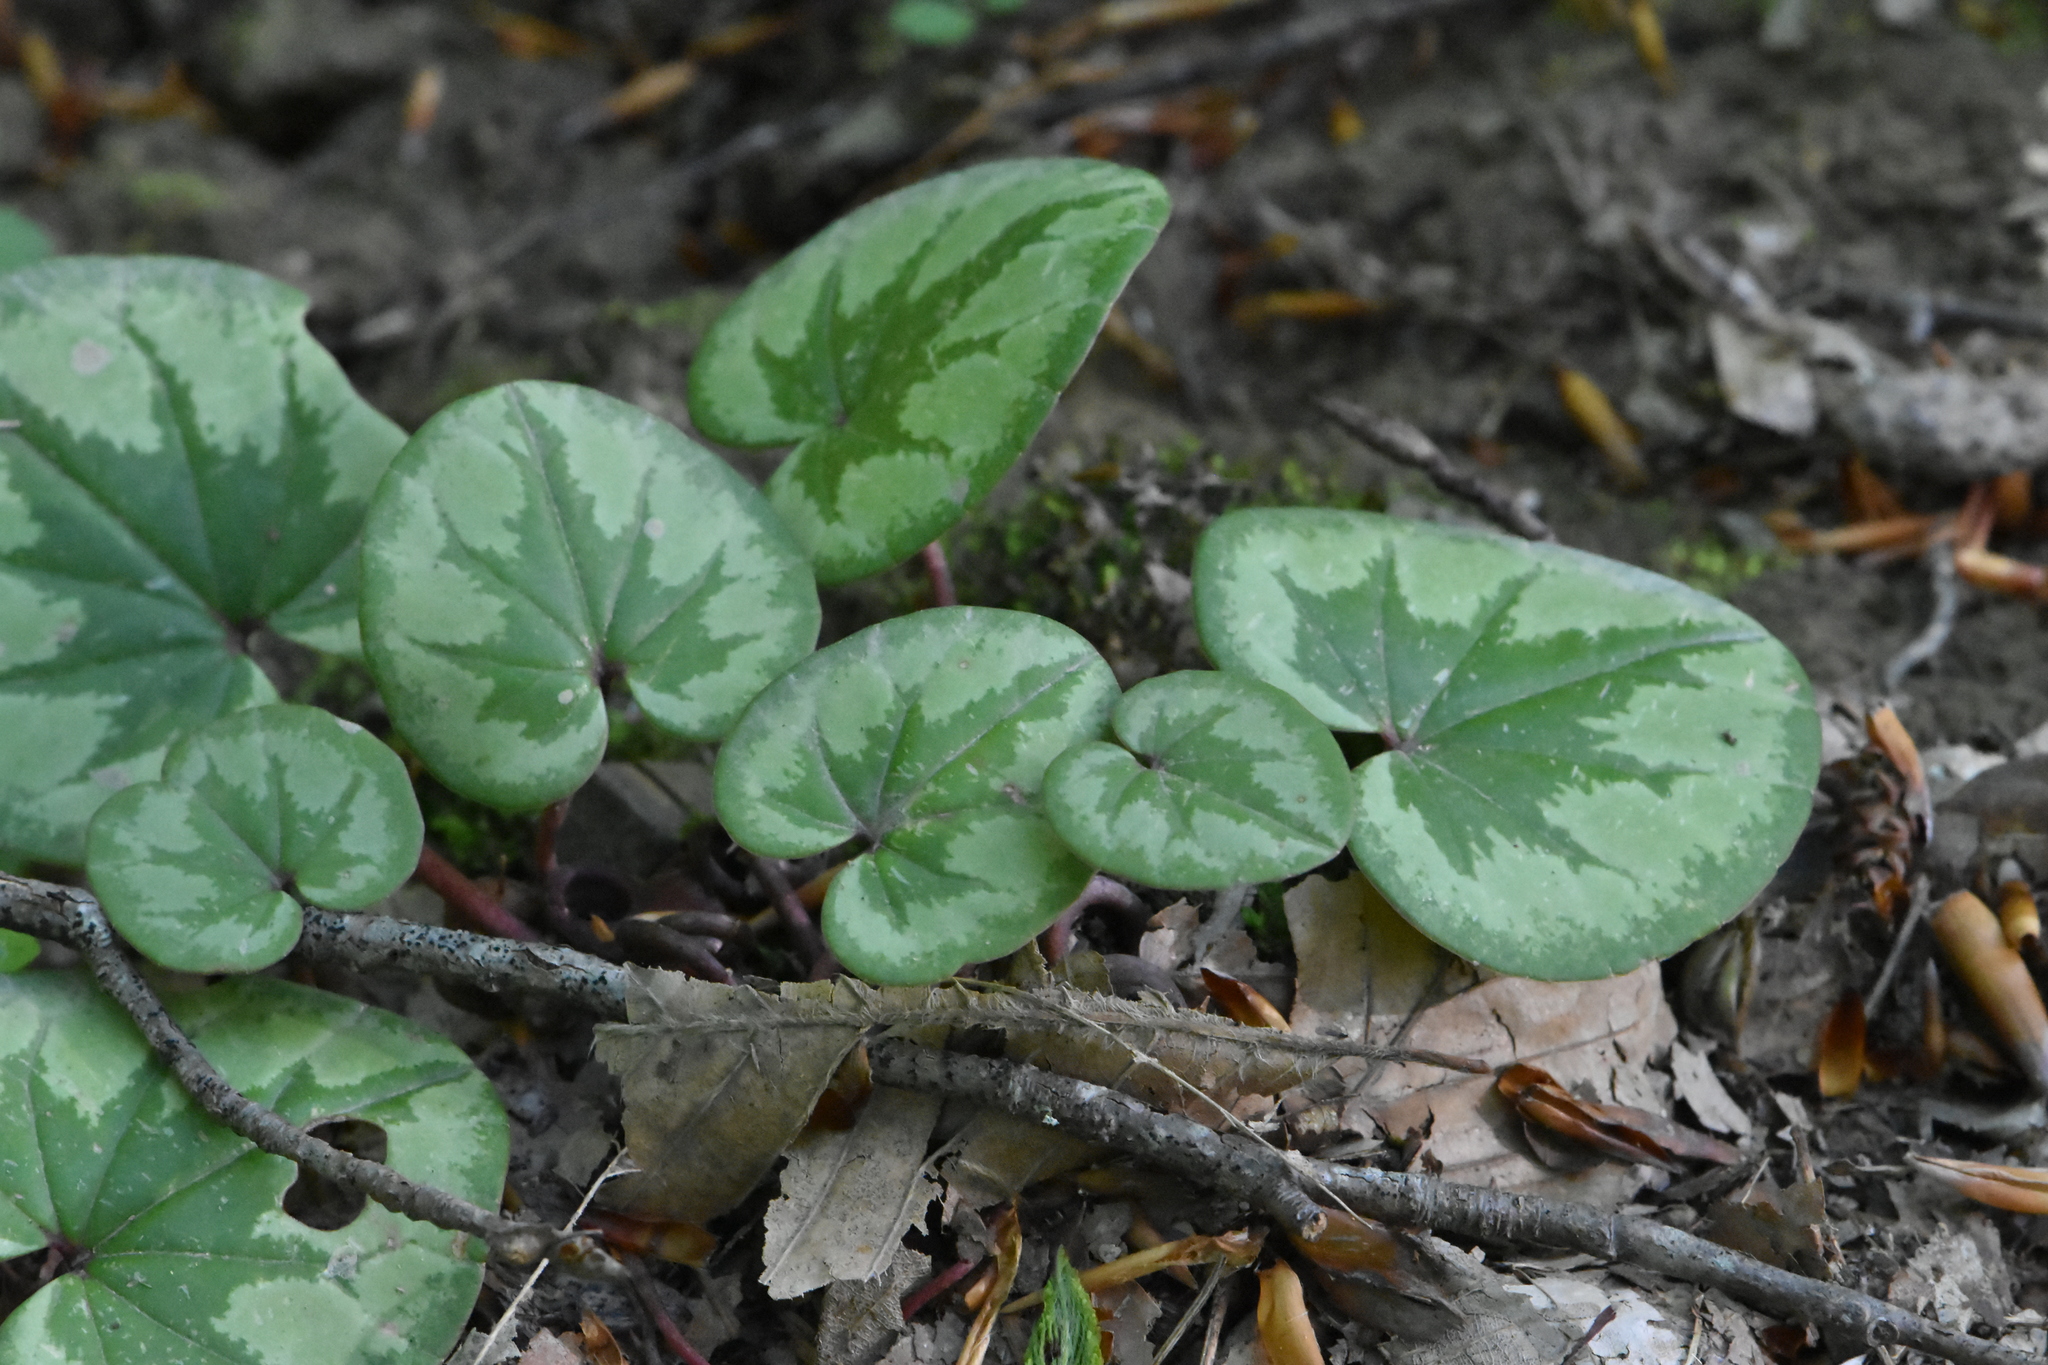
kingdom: Plantae
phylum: Tracheophyta
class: Magnoliopsida
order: Ericales
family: Primulaceae
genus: Cyclamen
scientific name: Cyclamen coum
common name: Eastern sowbread
